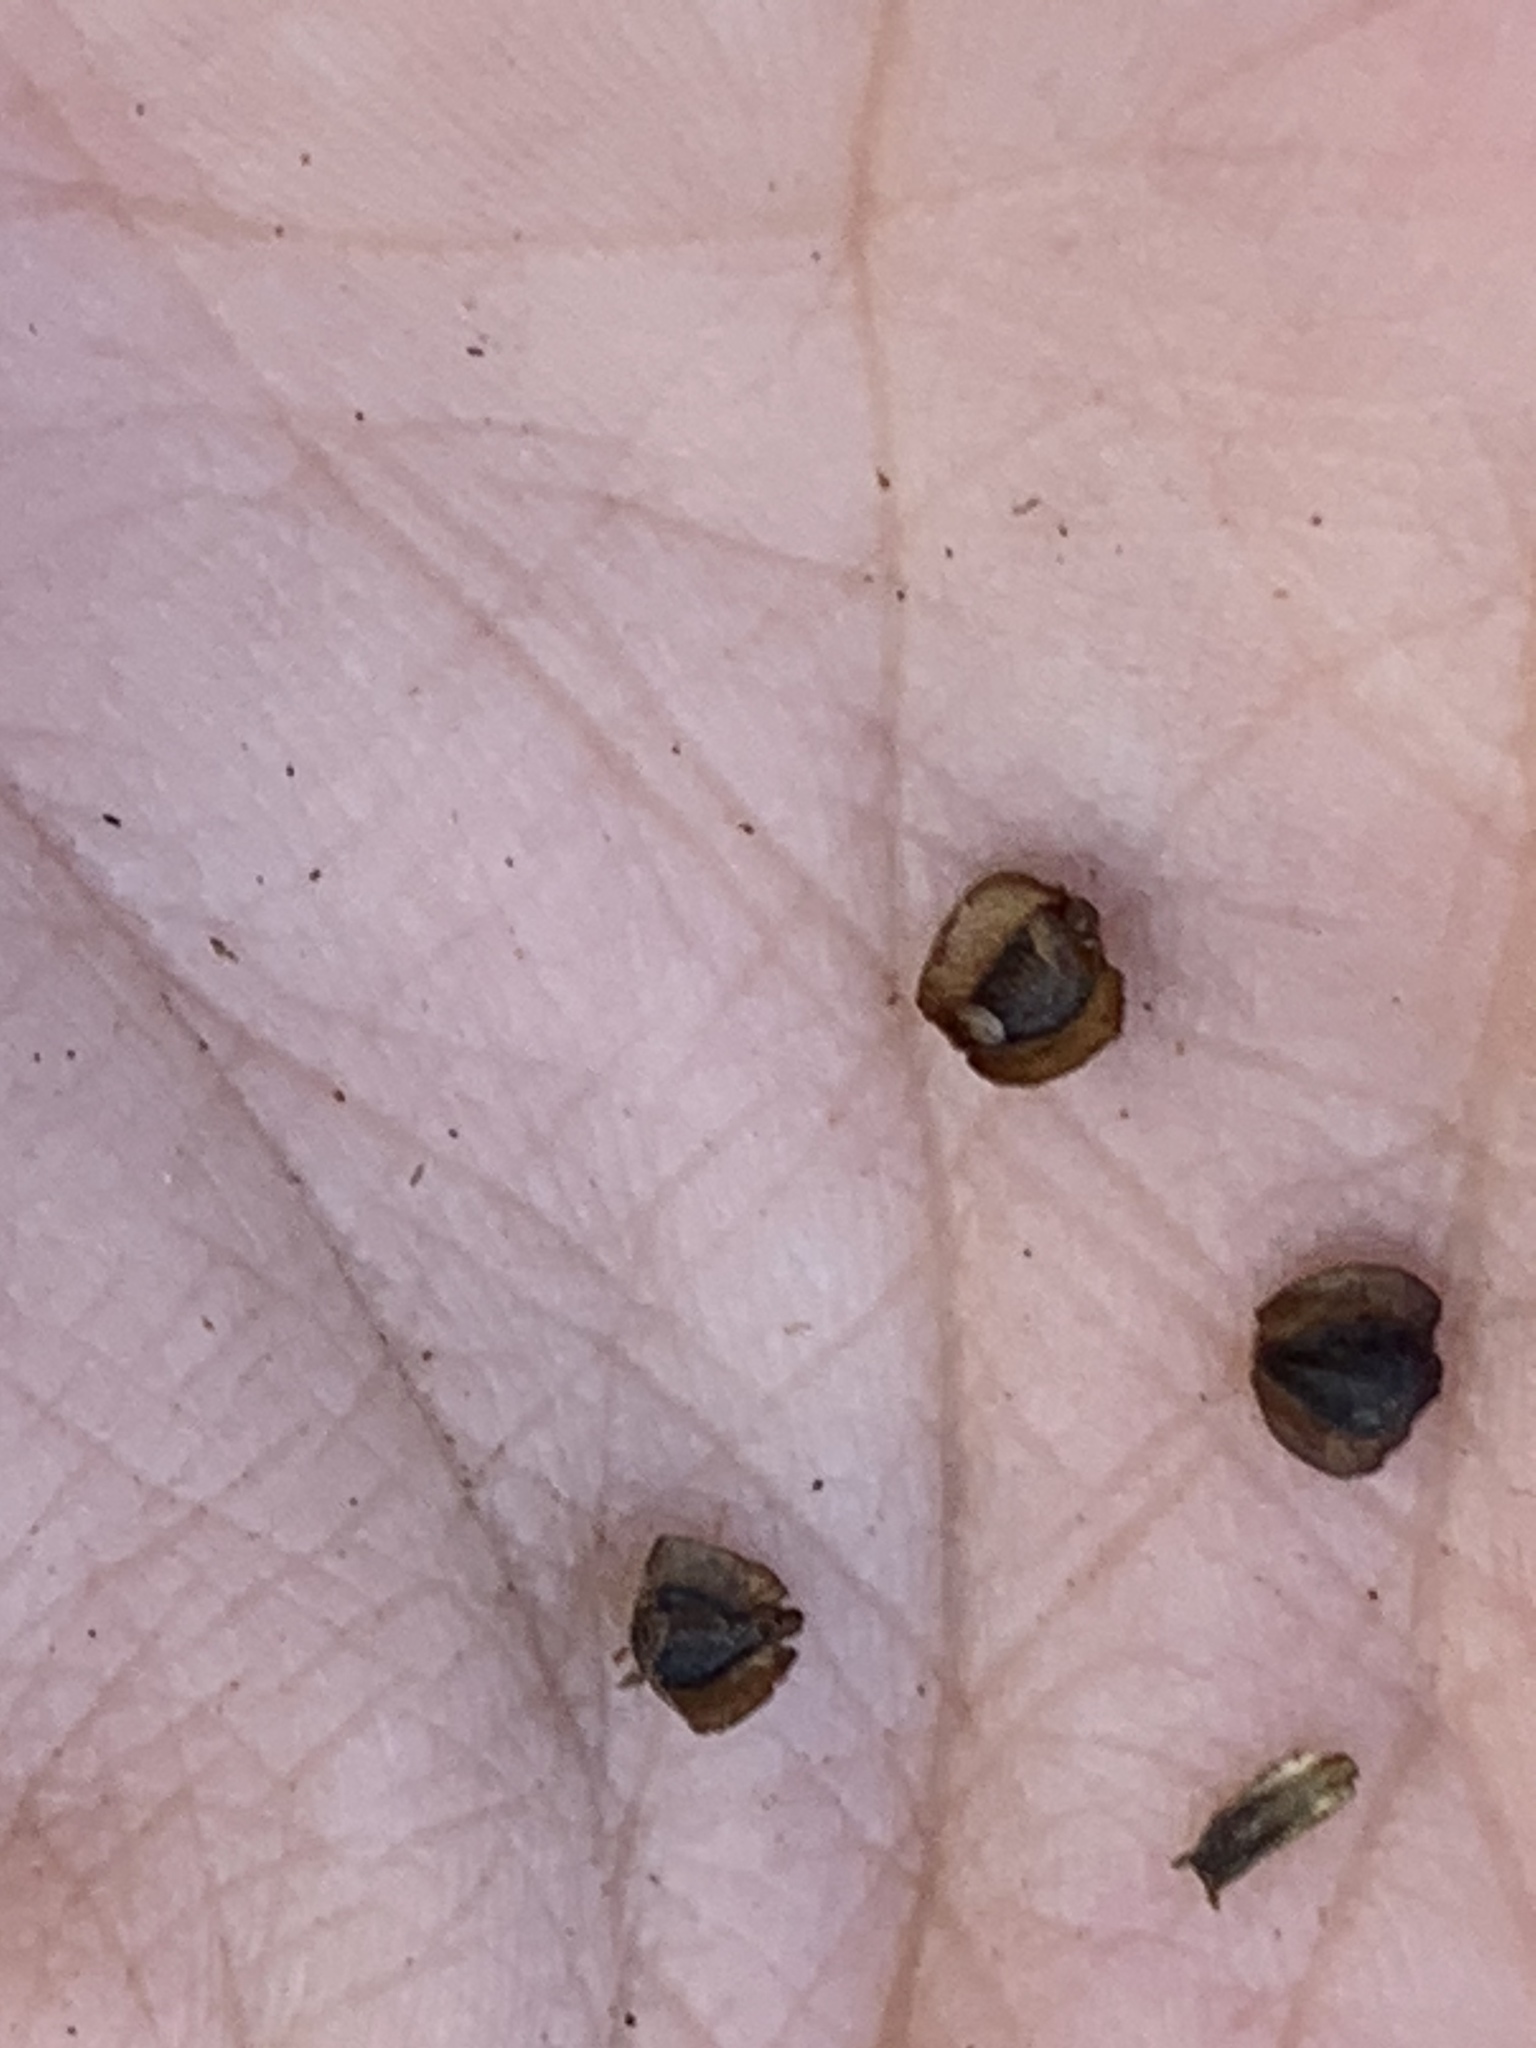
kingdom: Plantae
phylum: Tracheophyta
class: Magnoliopsida
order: Asterales
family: Asteraceae
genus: Coreopsis
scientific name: Coreopsis tinctoria
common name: Garden tickseed
